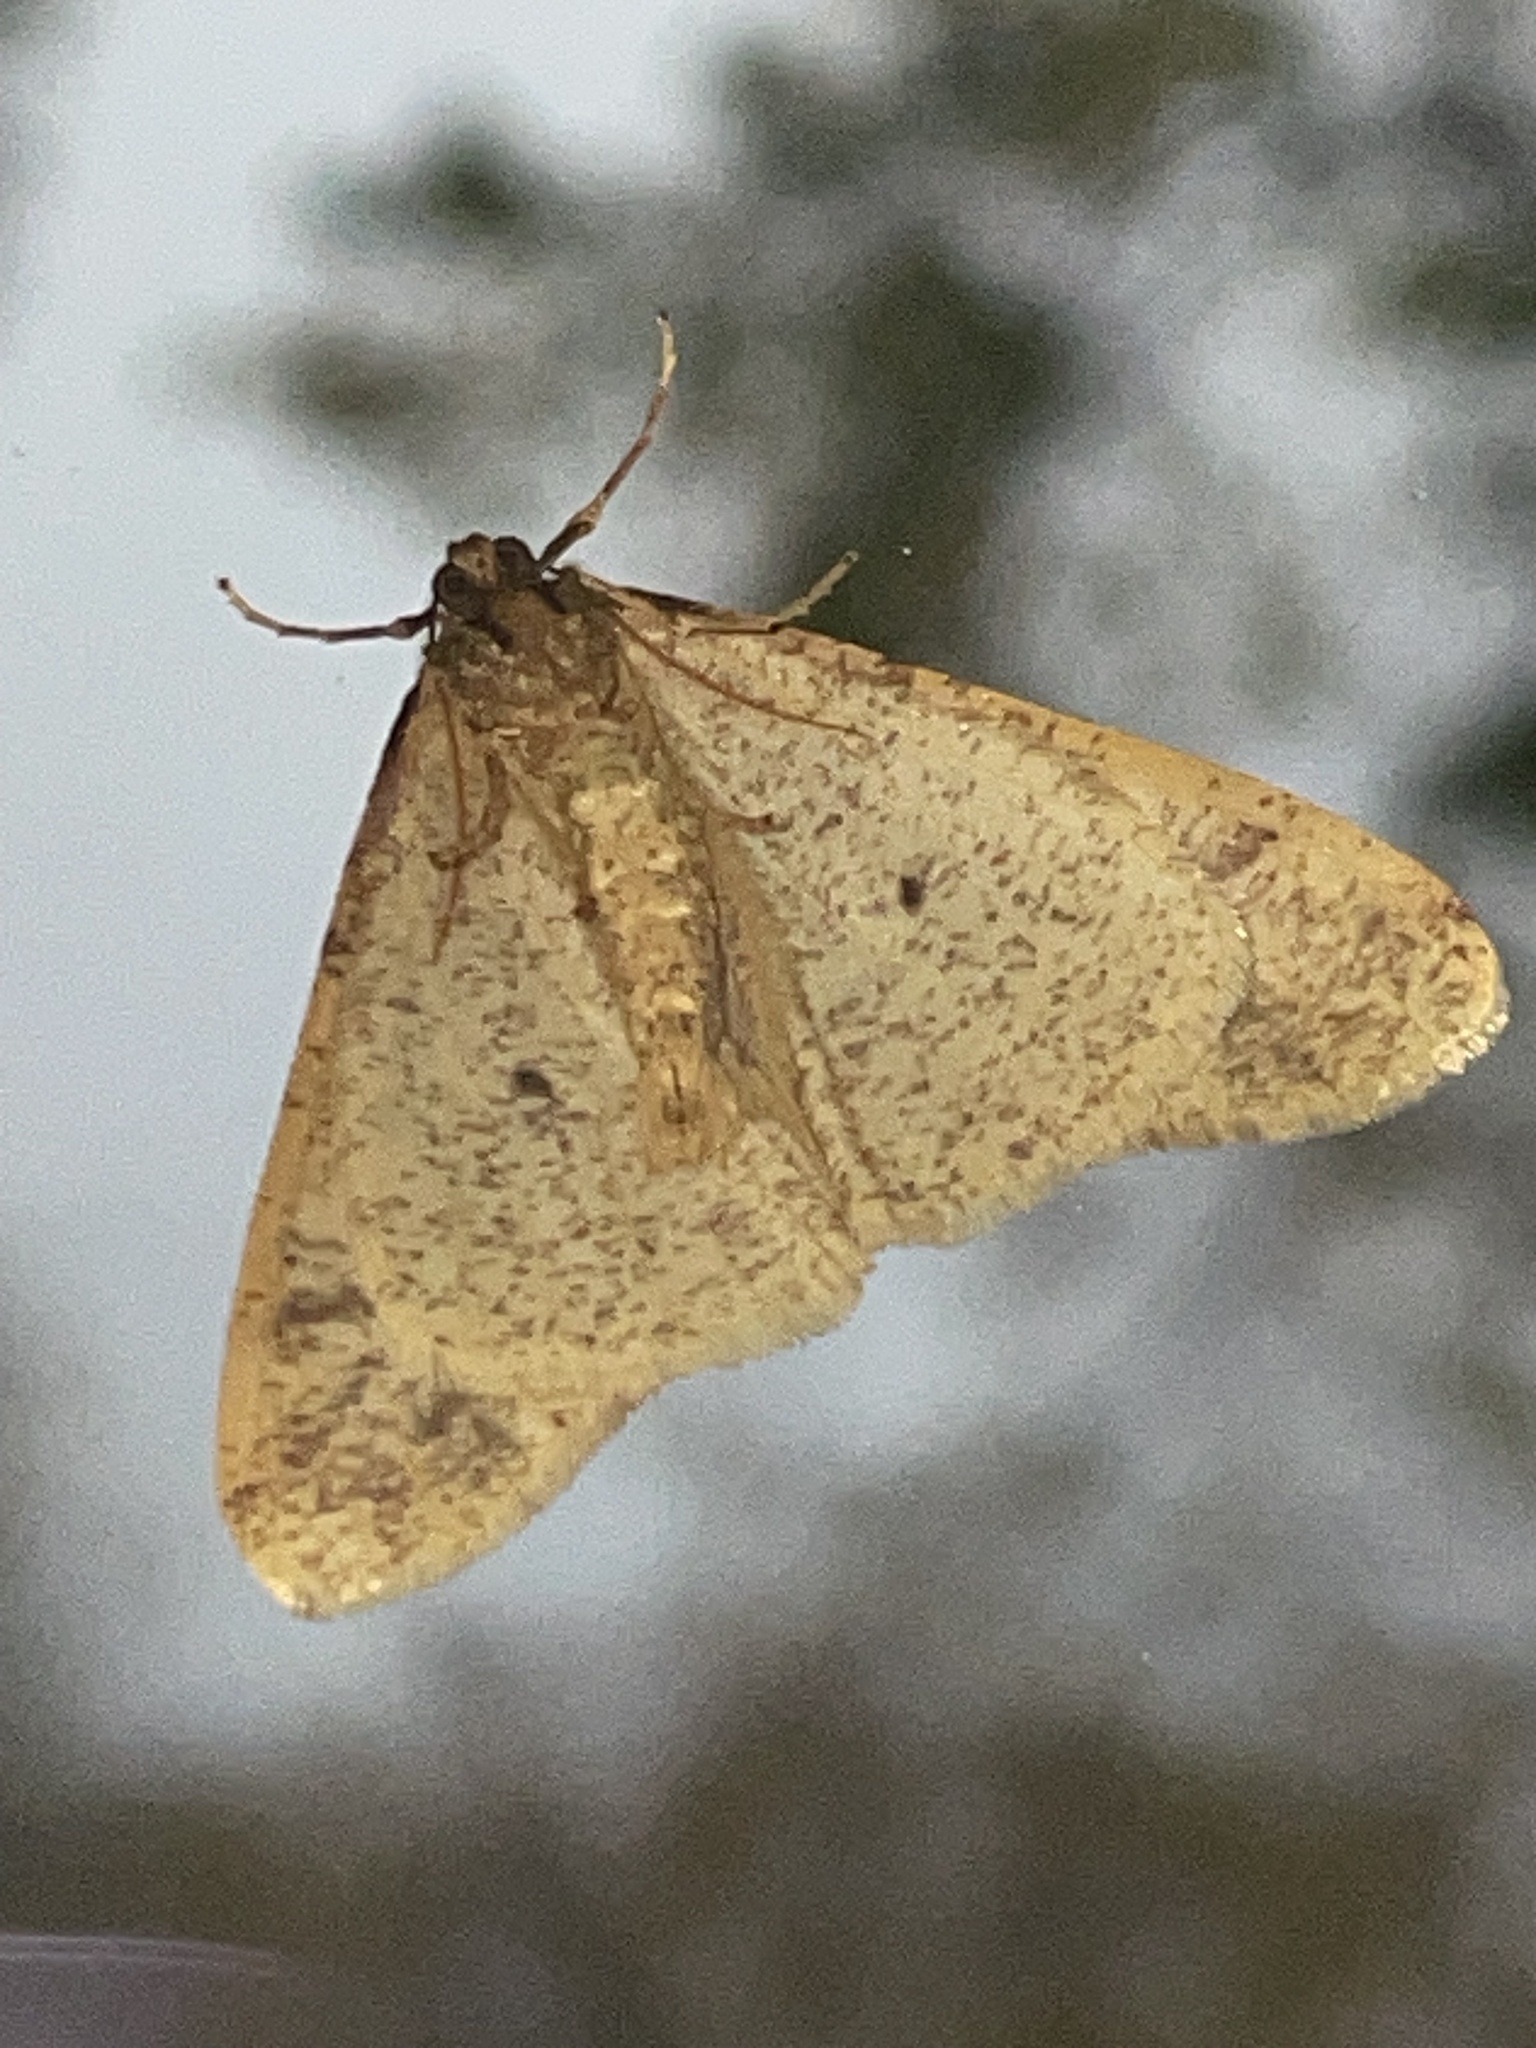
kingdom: Animalia
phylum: Arthropoda
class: Insecta
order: Lepidoptera
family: Geometridae
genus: Erannis
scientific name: Erannis tiliaria
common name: Linden looper
